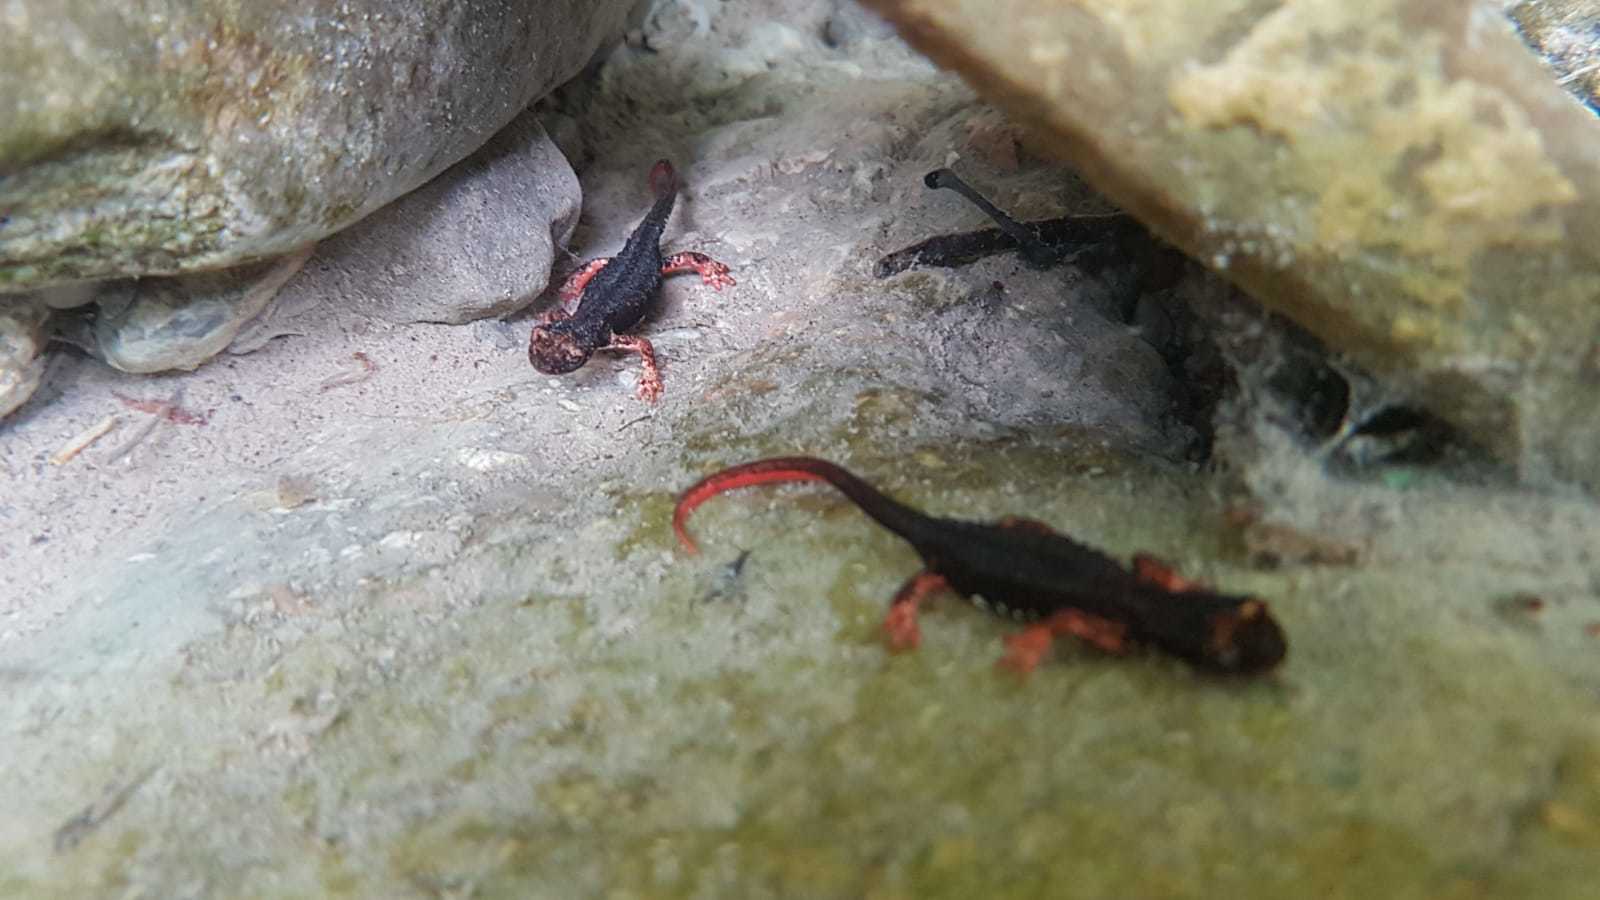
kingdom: Animalia
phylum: Chordata
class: Amphibia
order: Caudata
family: Salamandridae
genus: Salamandrina
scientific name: Salamandrina perspicillata
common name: Northern spectacled salamander
